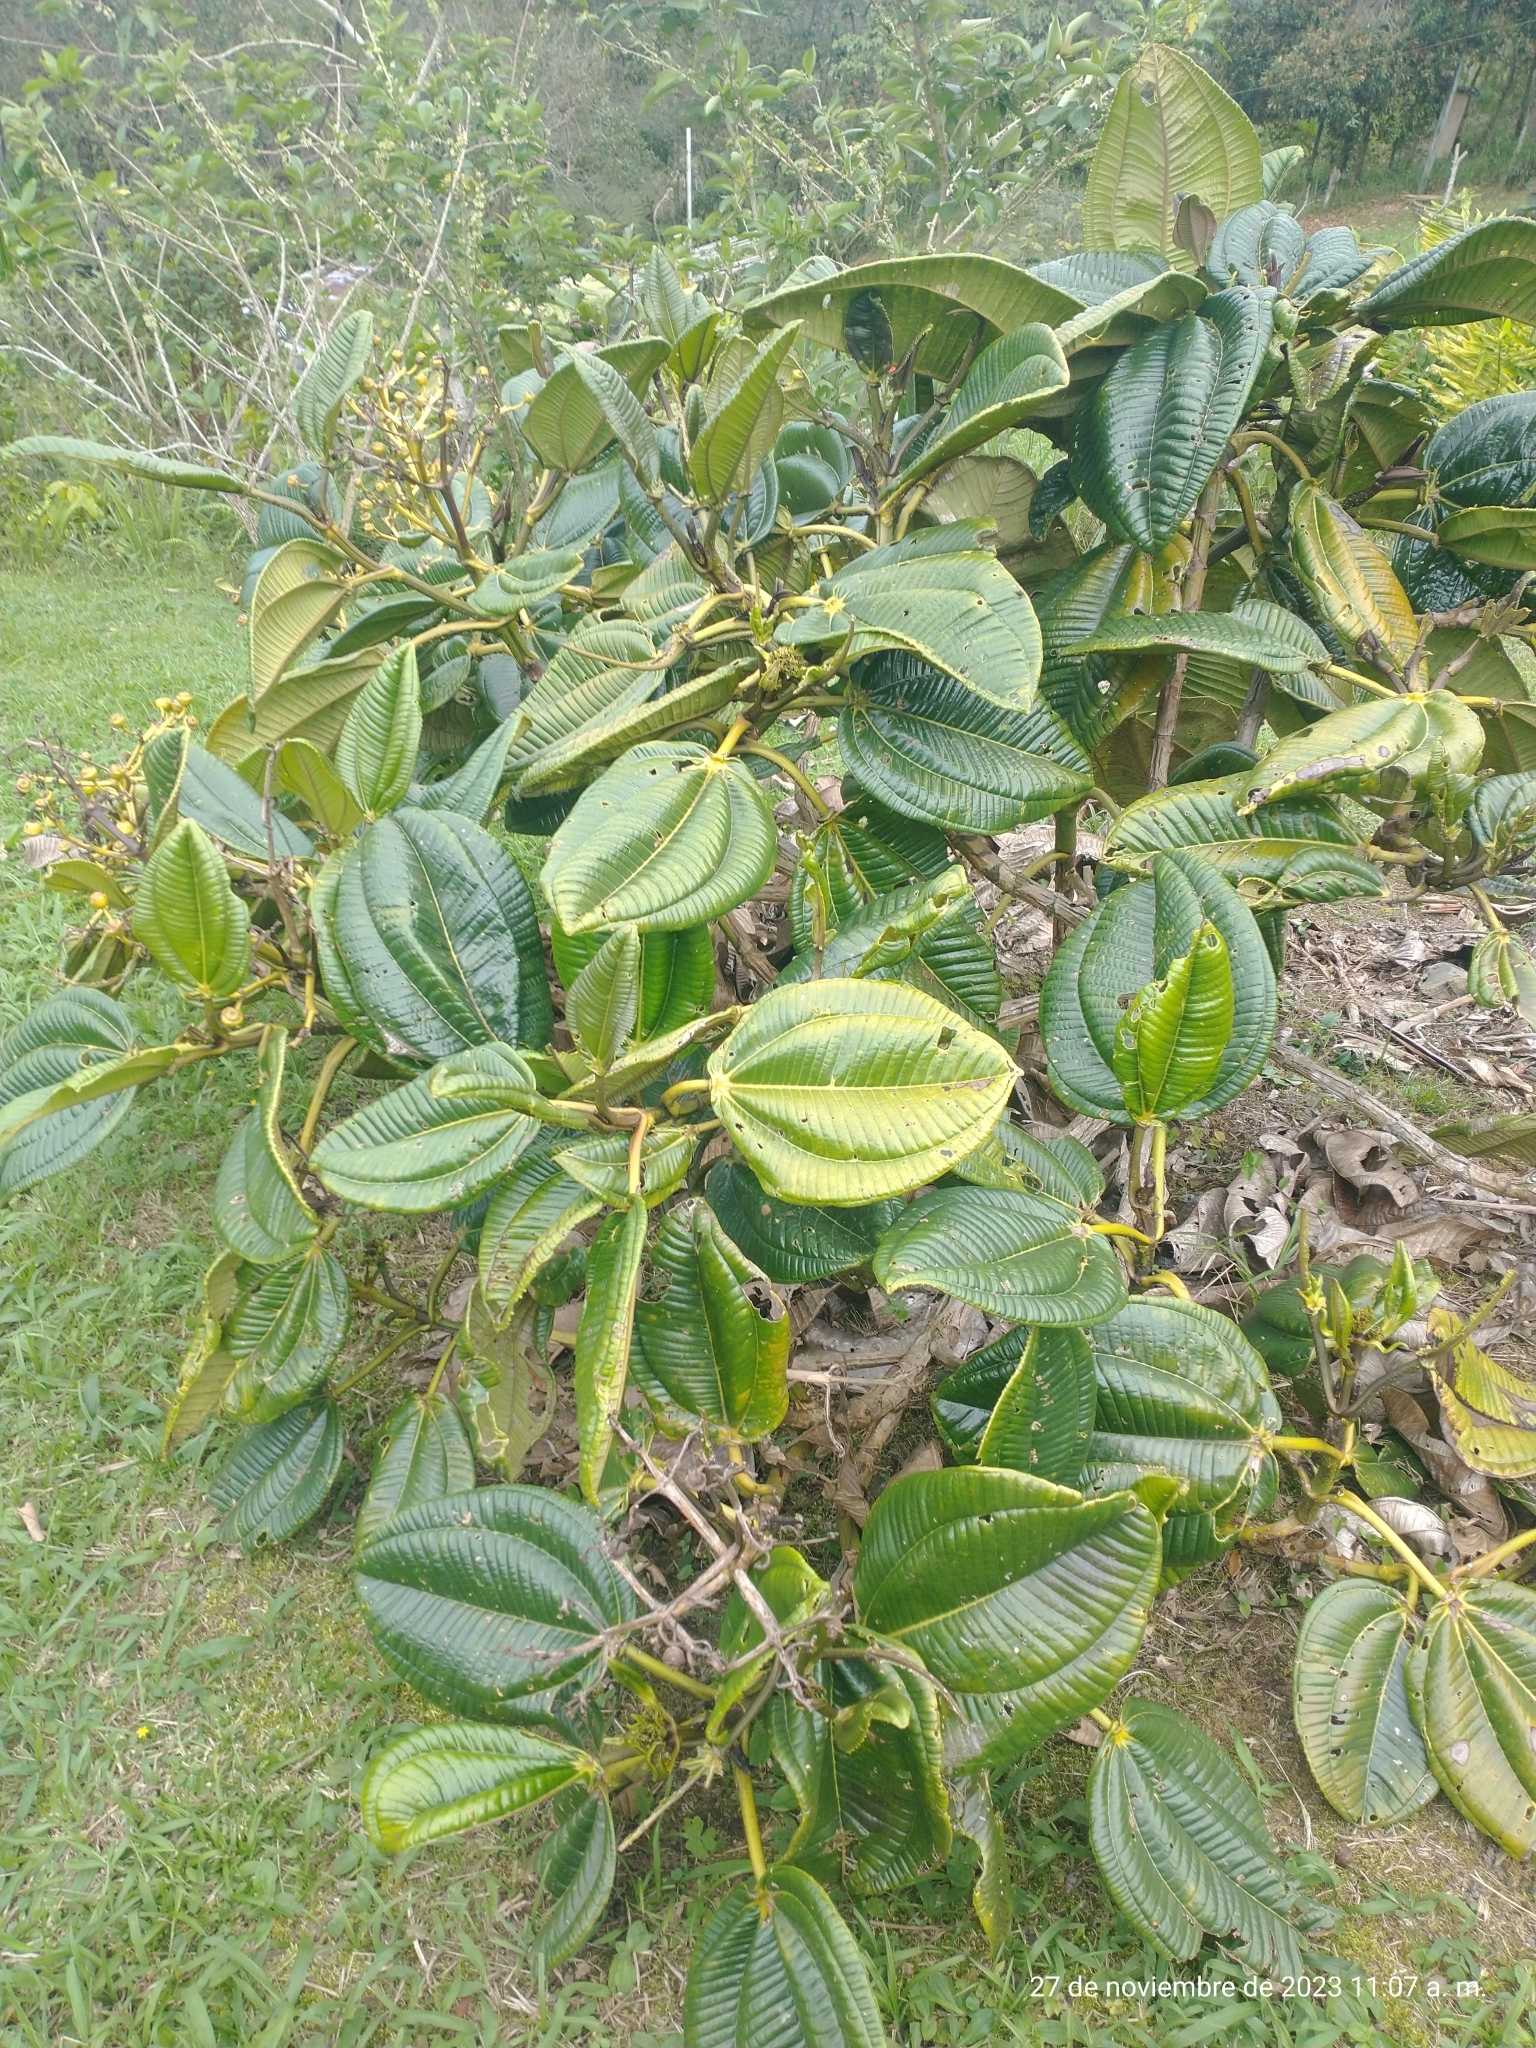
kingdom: Plantae
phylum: Tracheophyta
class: Magnoliopsida
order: Myrtales
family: Melastomataceae
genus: Meriania
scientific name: Meriania hernandi
